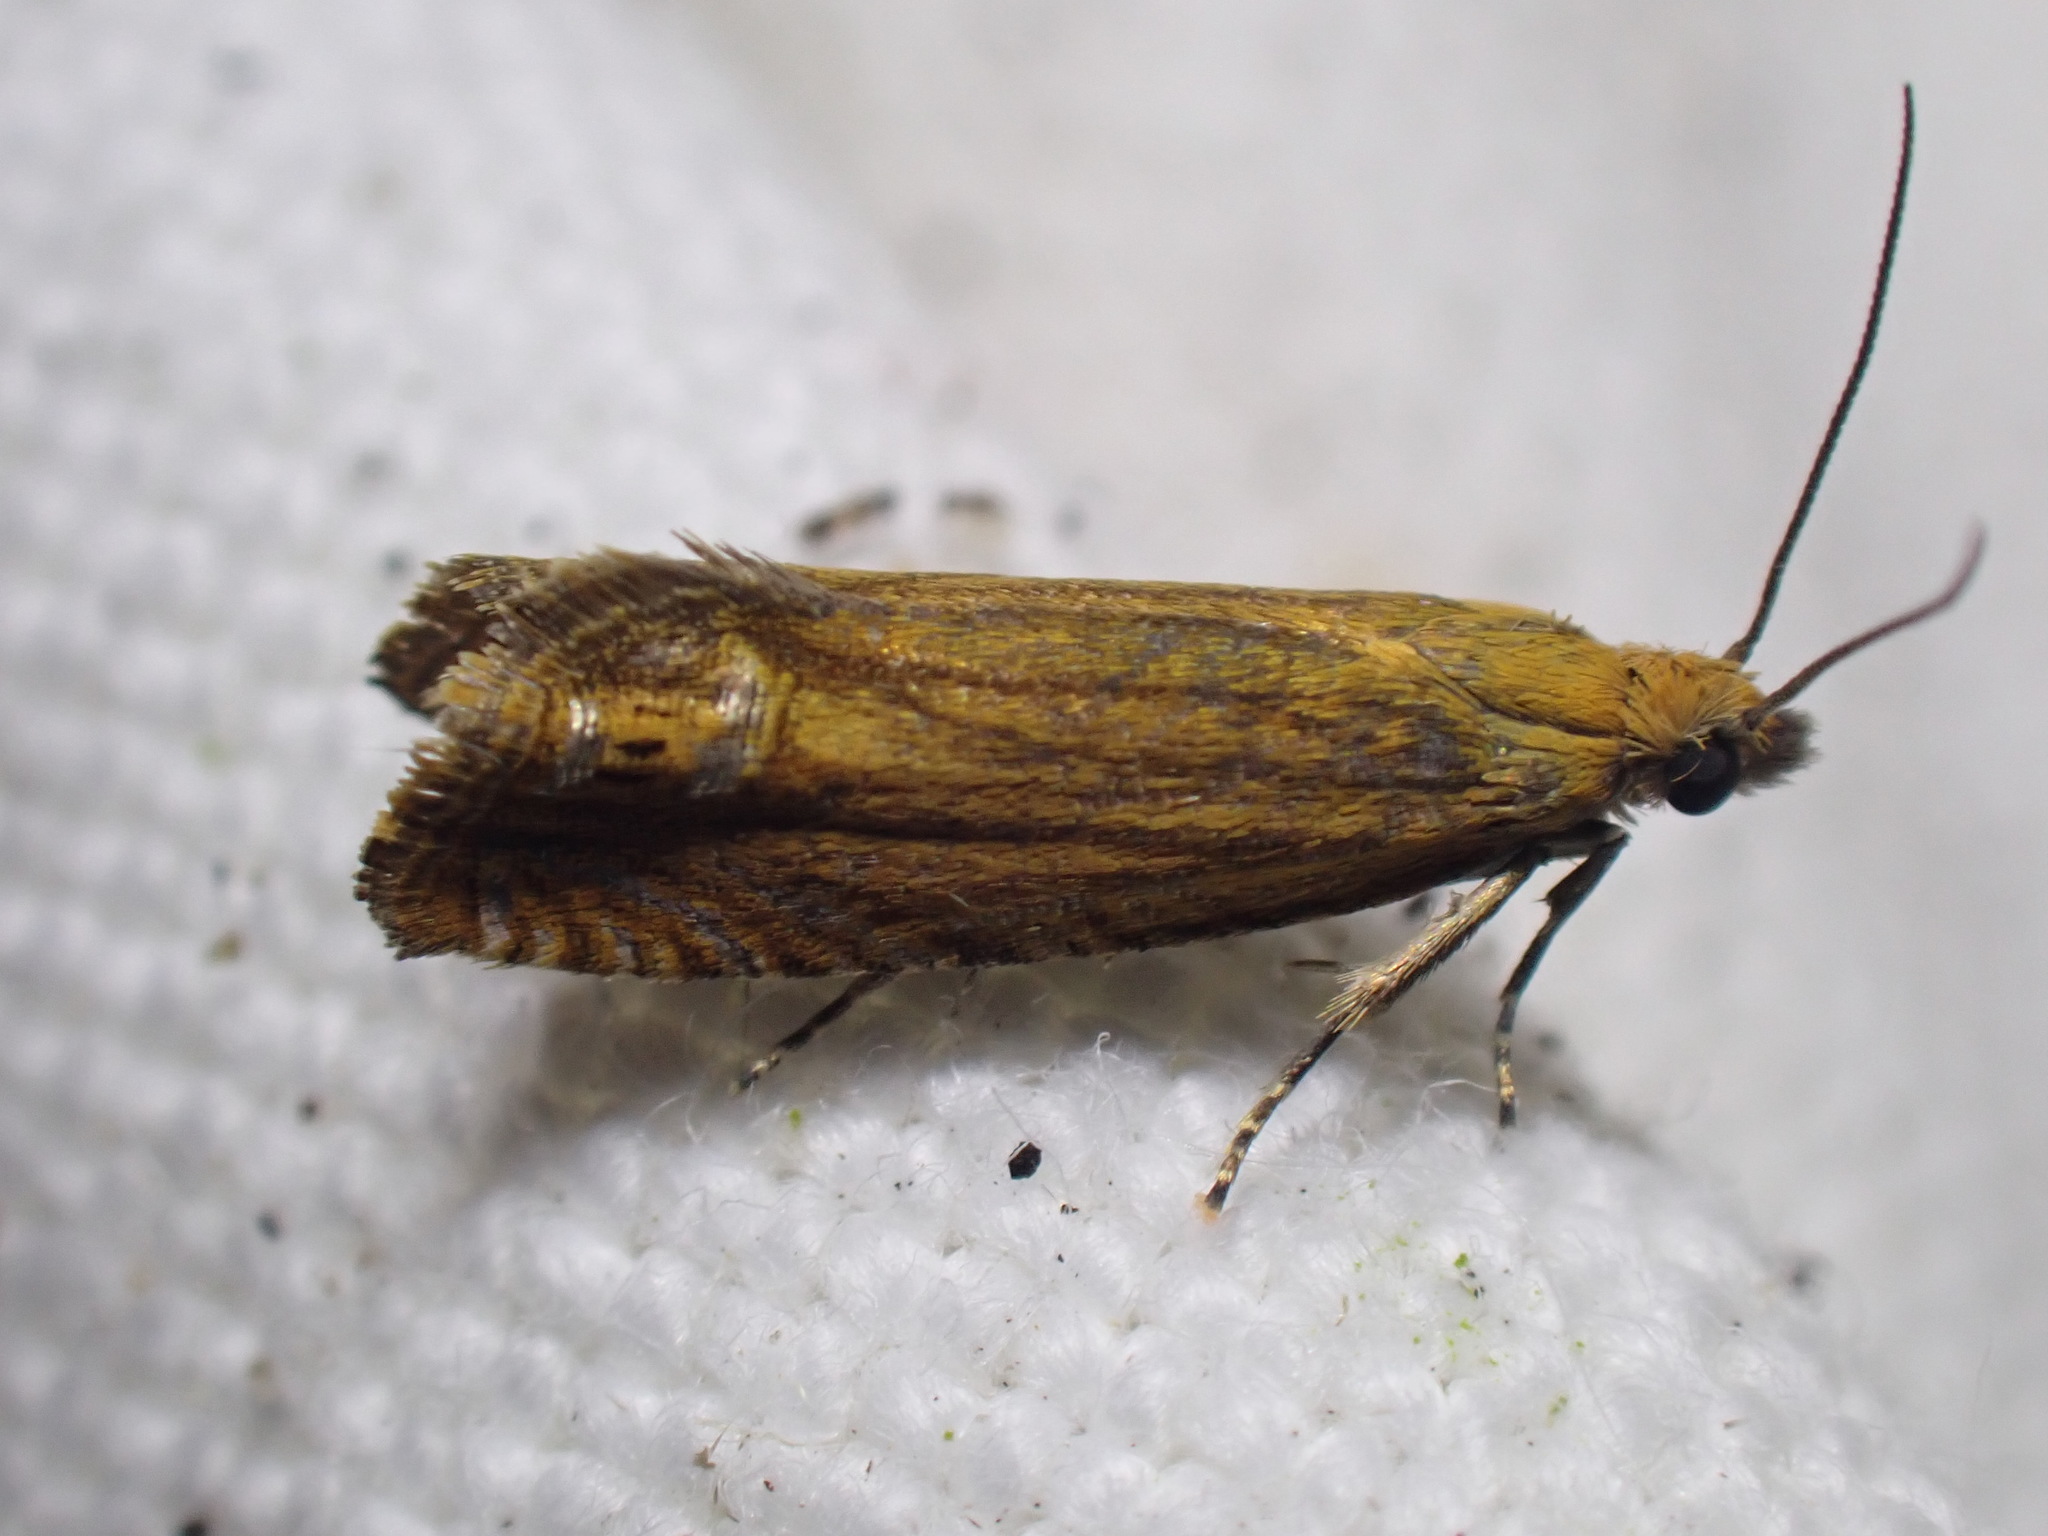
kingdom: Animalia
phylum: Arthropoda
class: Insecta
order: Lepidoptera
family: Tortricidae
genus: Lathronympha
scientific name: Lathronympha strigana
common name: Red piercer
